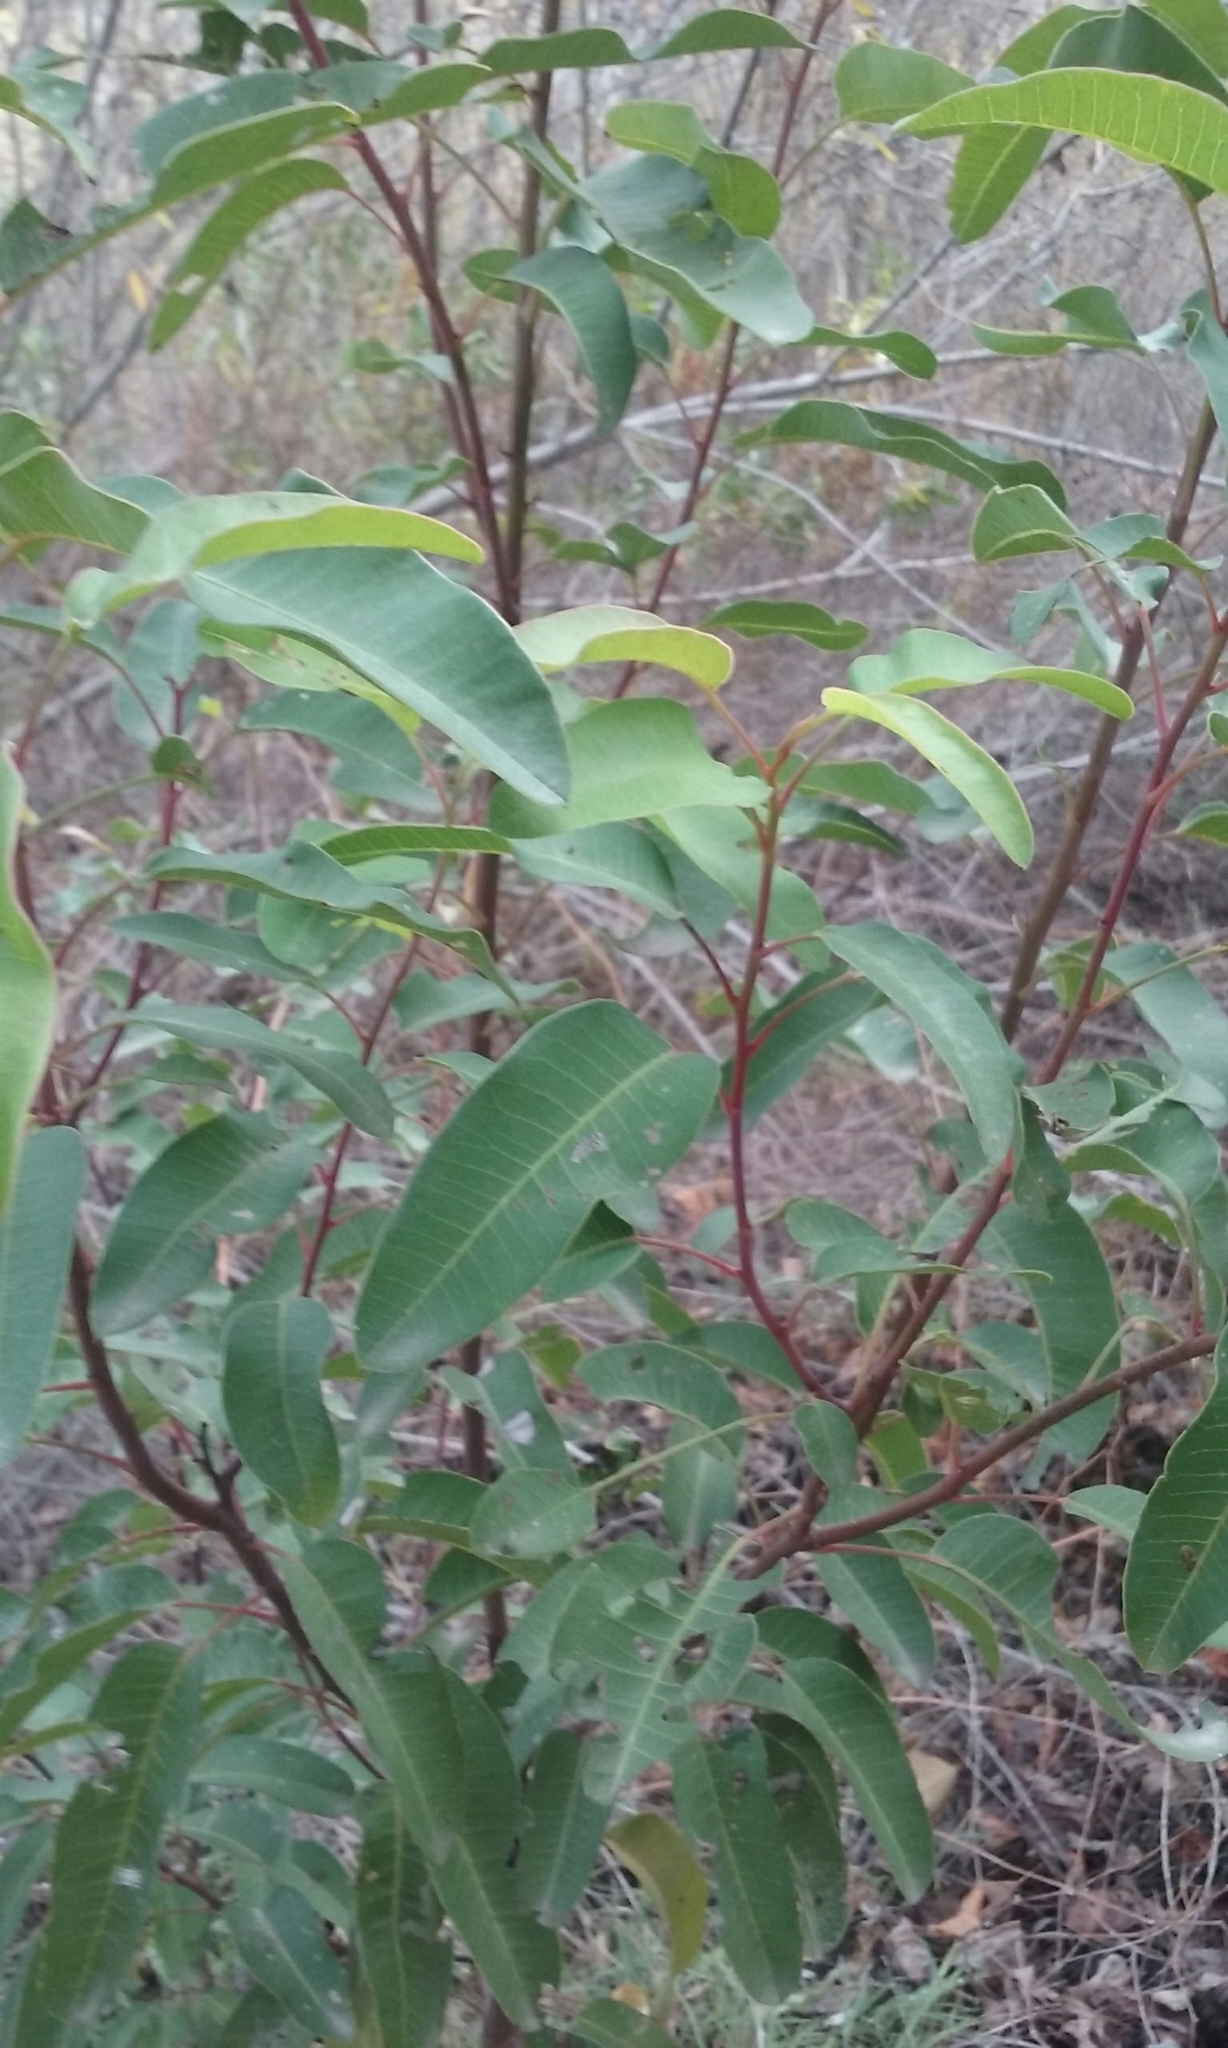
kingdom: Plantae
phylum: Tracheophyta
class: Magnoliopsida
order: Sapindales
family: Anacardiaceae
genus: Malosma
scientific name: Malosma laurina
